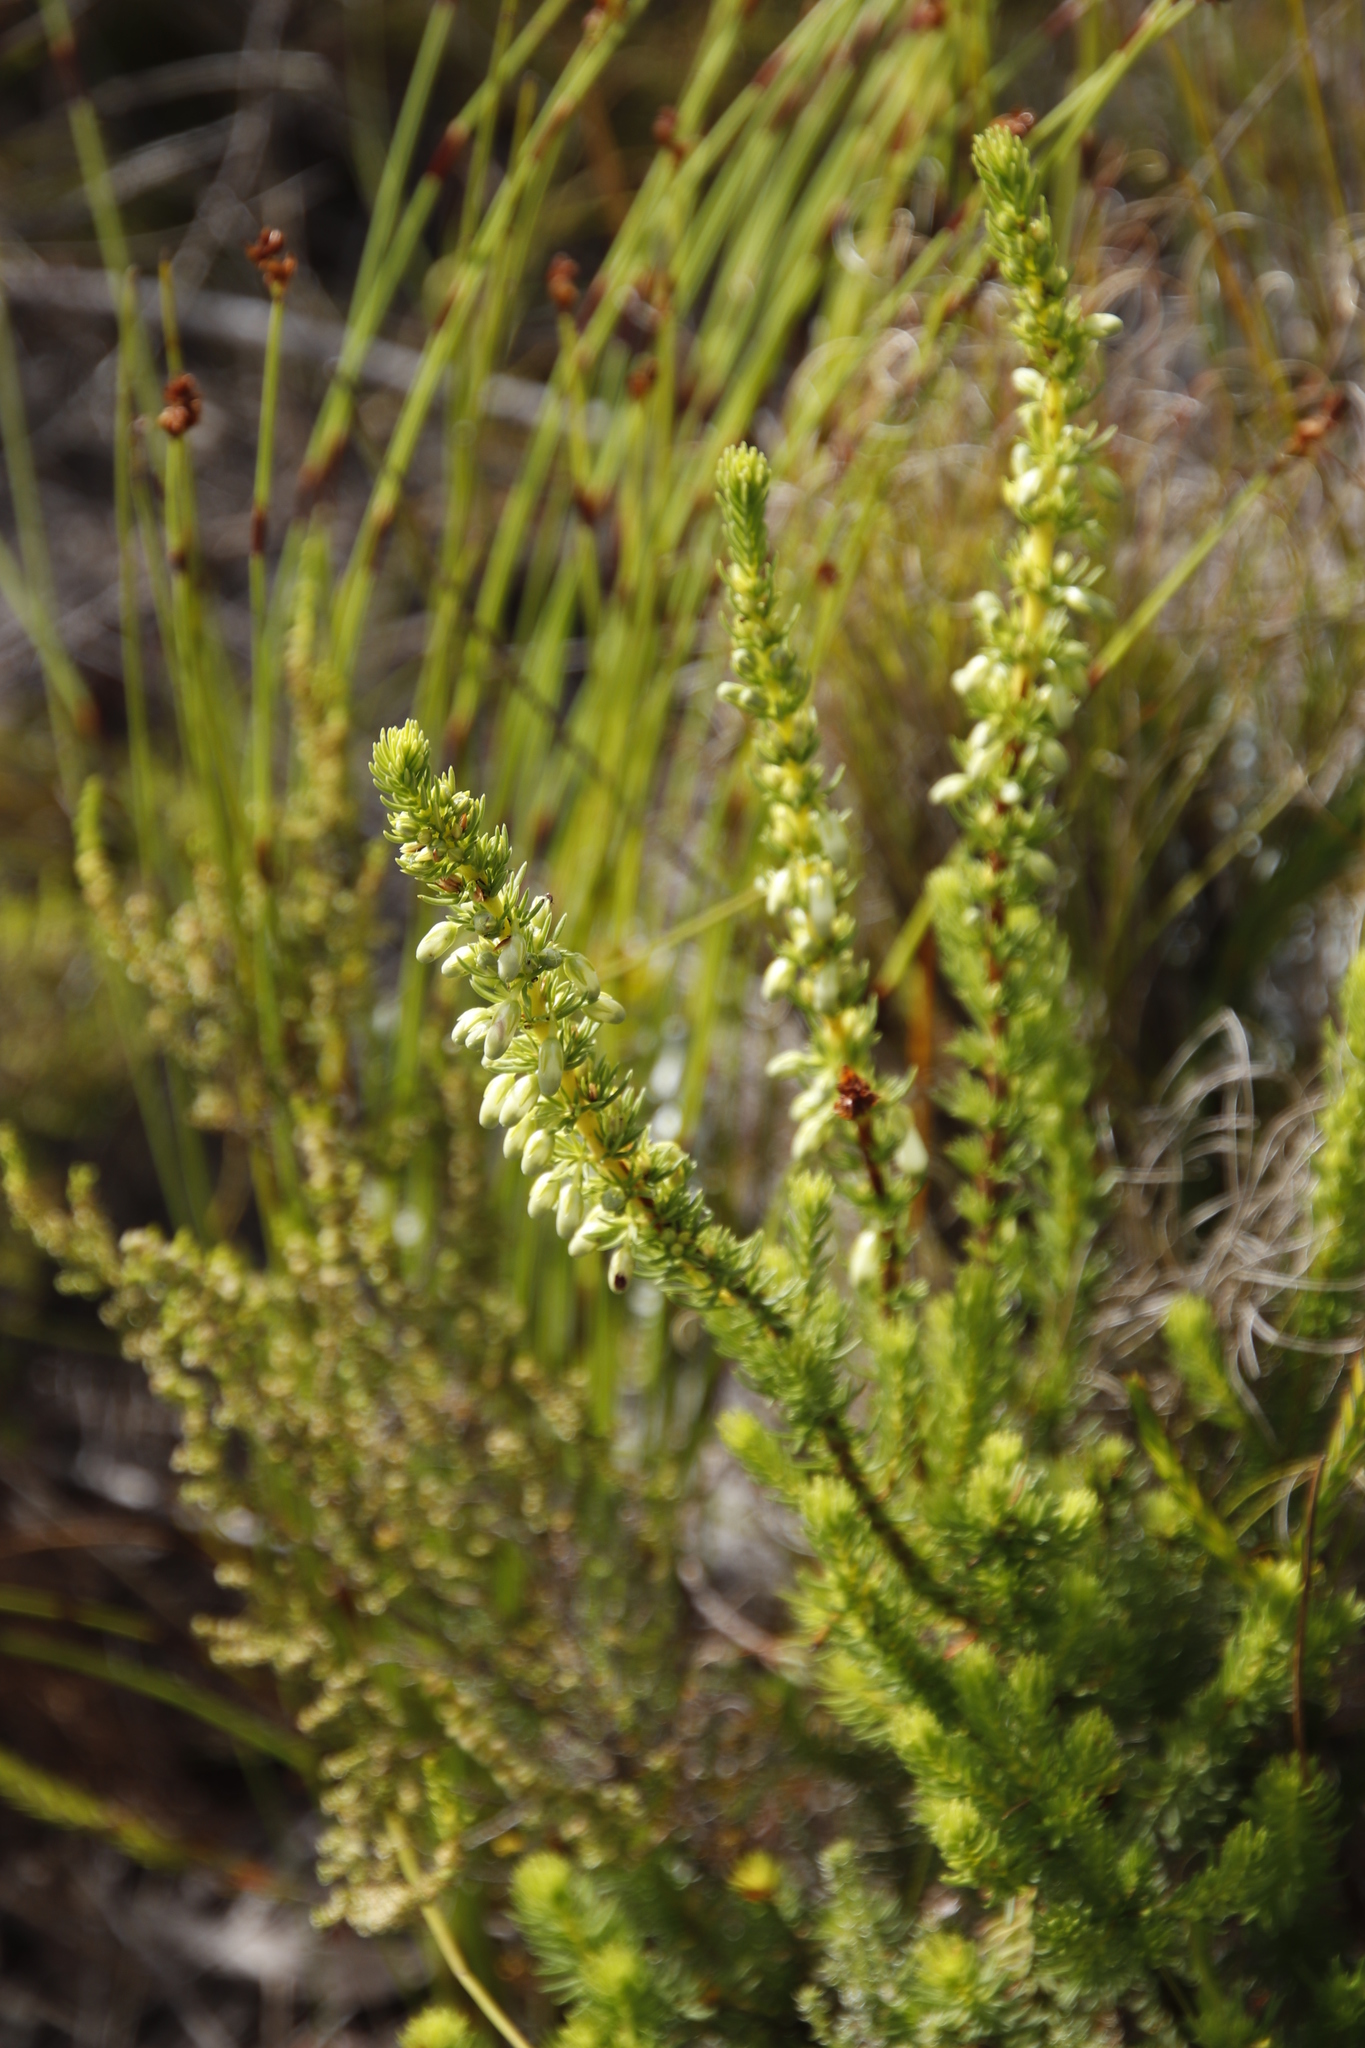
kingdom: Plantae
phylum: Tracheophyta
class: Magnoliopsida
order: Ericales
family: Ericaceae
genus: Erica
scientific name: Erica mammosa
